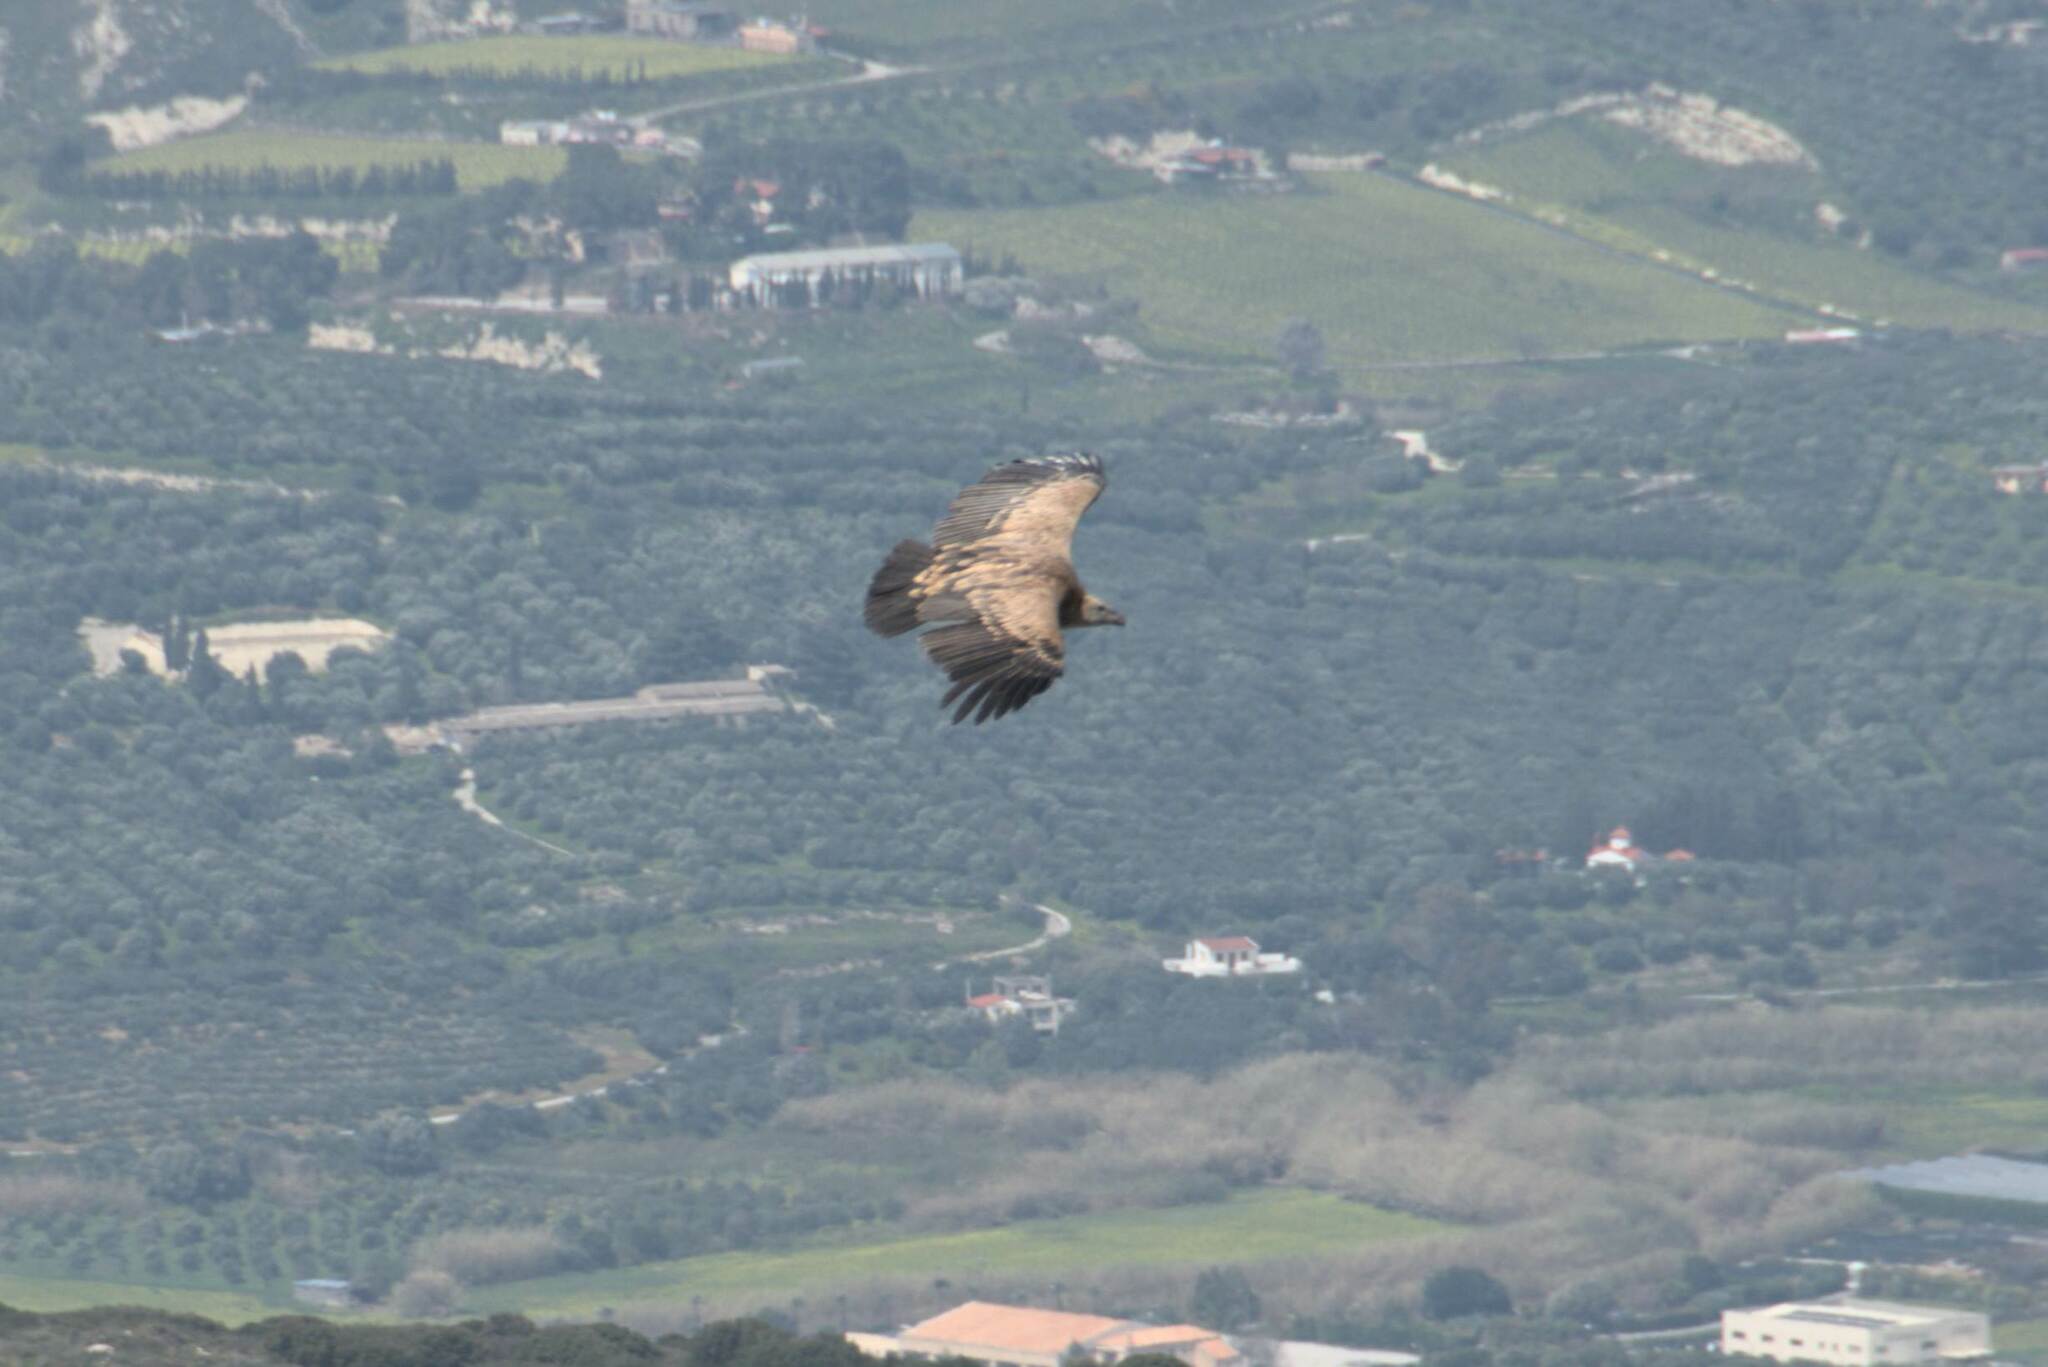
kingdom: Animalia
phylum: Chordata
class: Aves
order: Accipitriformes
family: Accipitridae
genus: Gyps
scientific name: Gyps fulvus
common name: Griffon vulture
